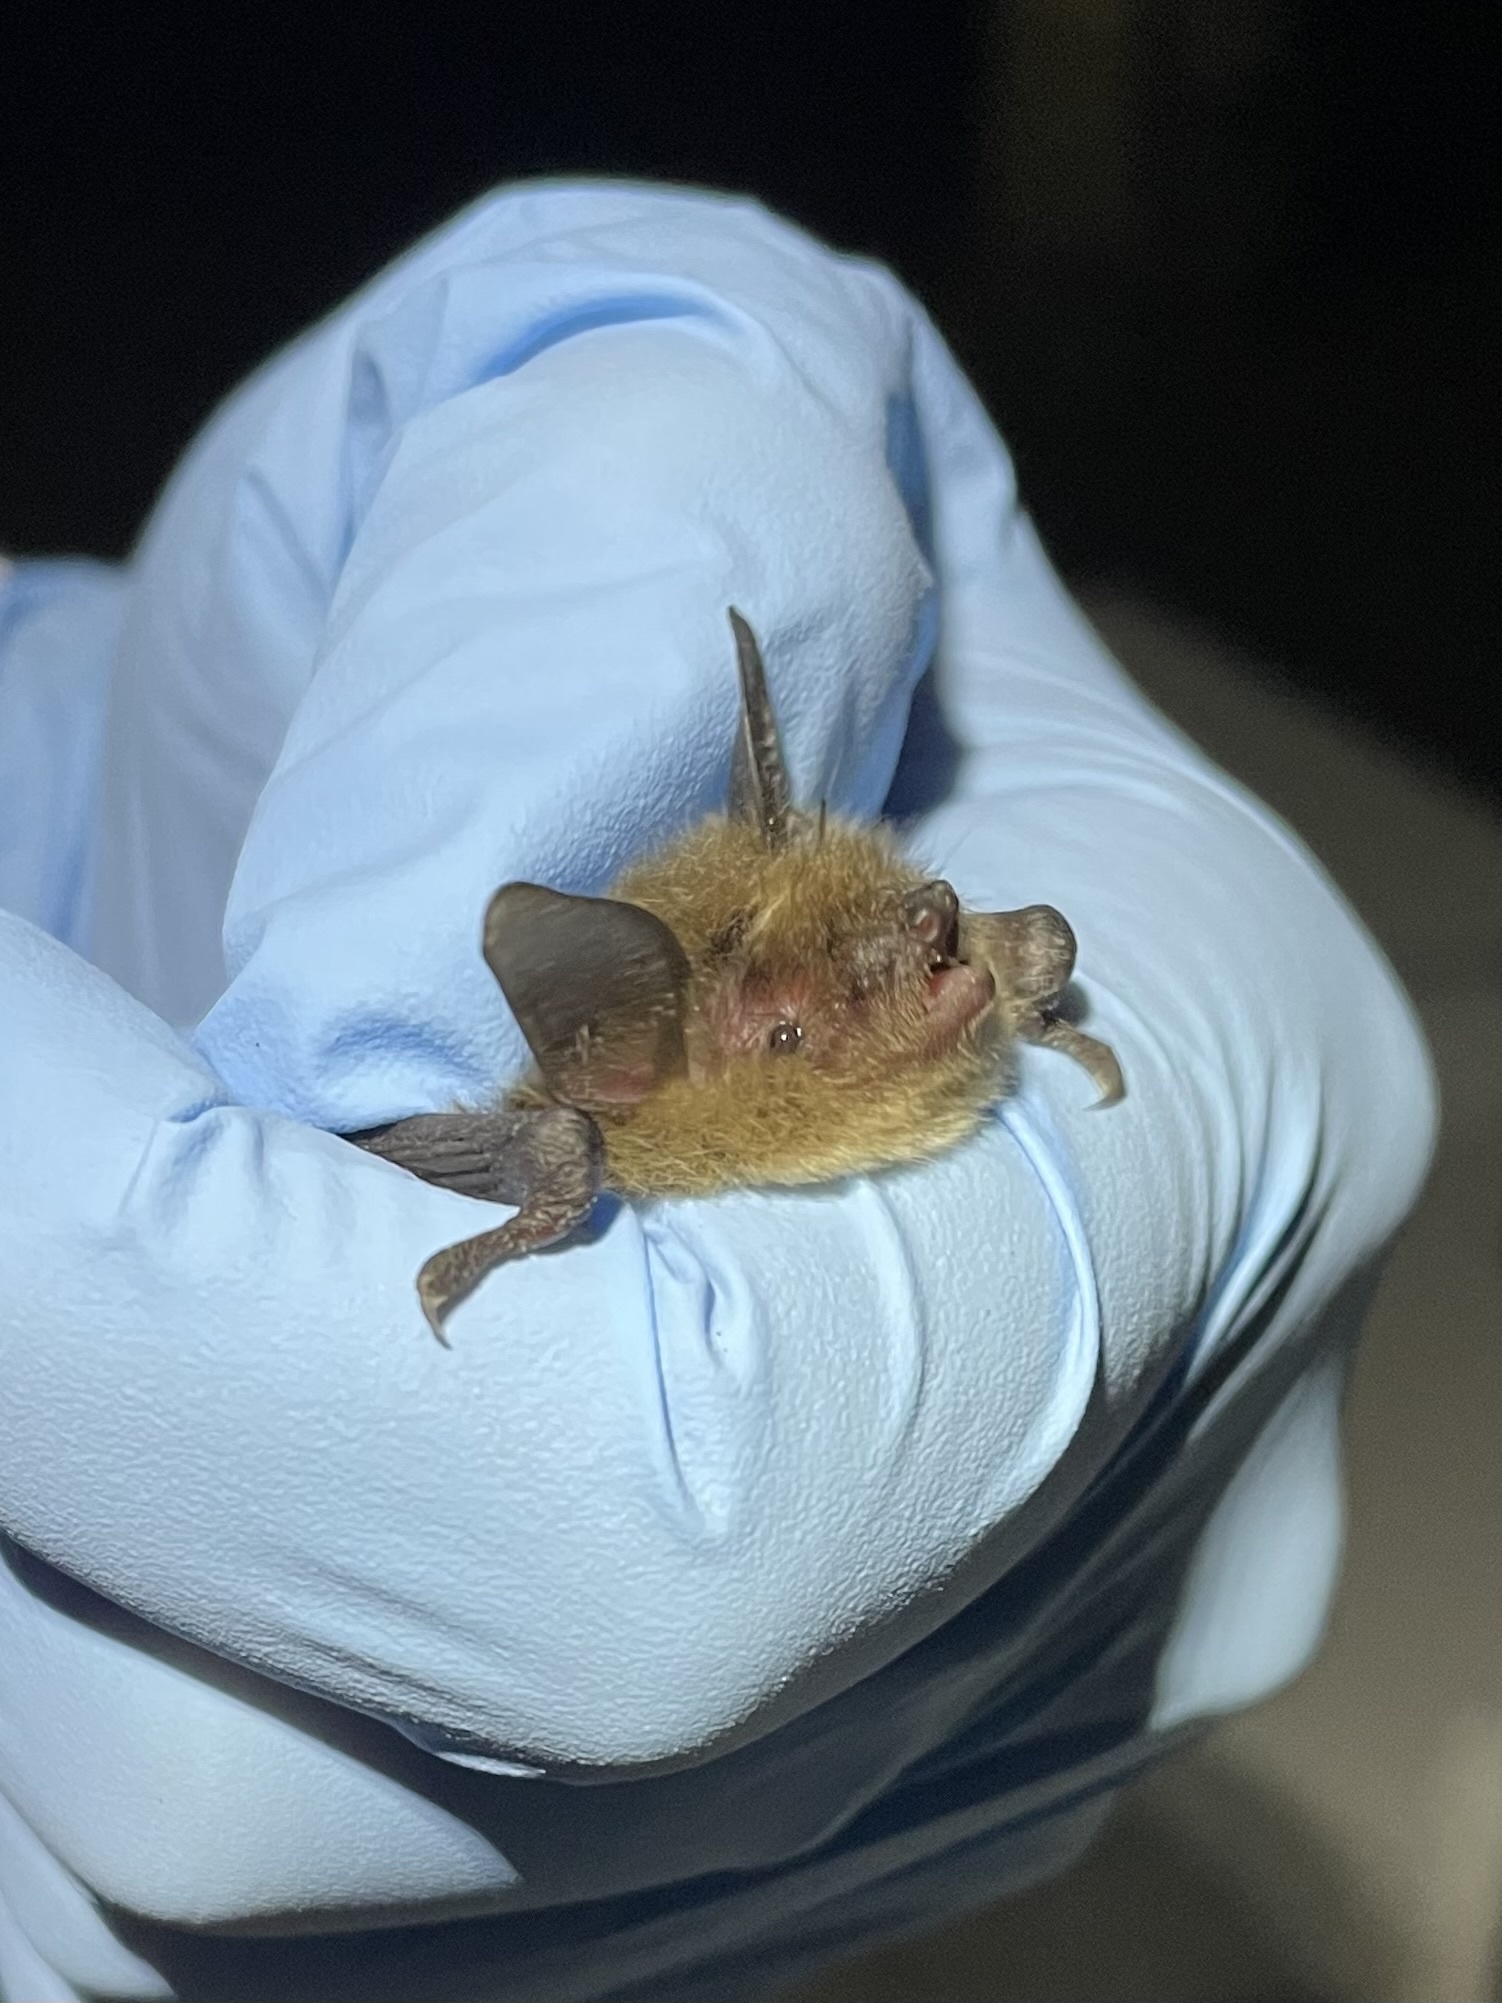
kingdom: Animalia
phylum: Chordata
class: Mammalia
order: Chiroptera
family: Vespertilionidae
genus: Myotis
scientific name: Myotis yumanensis
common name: Yuma myotis
